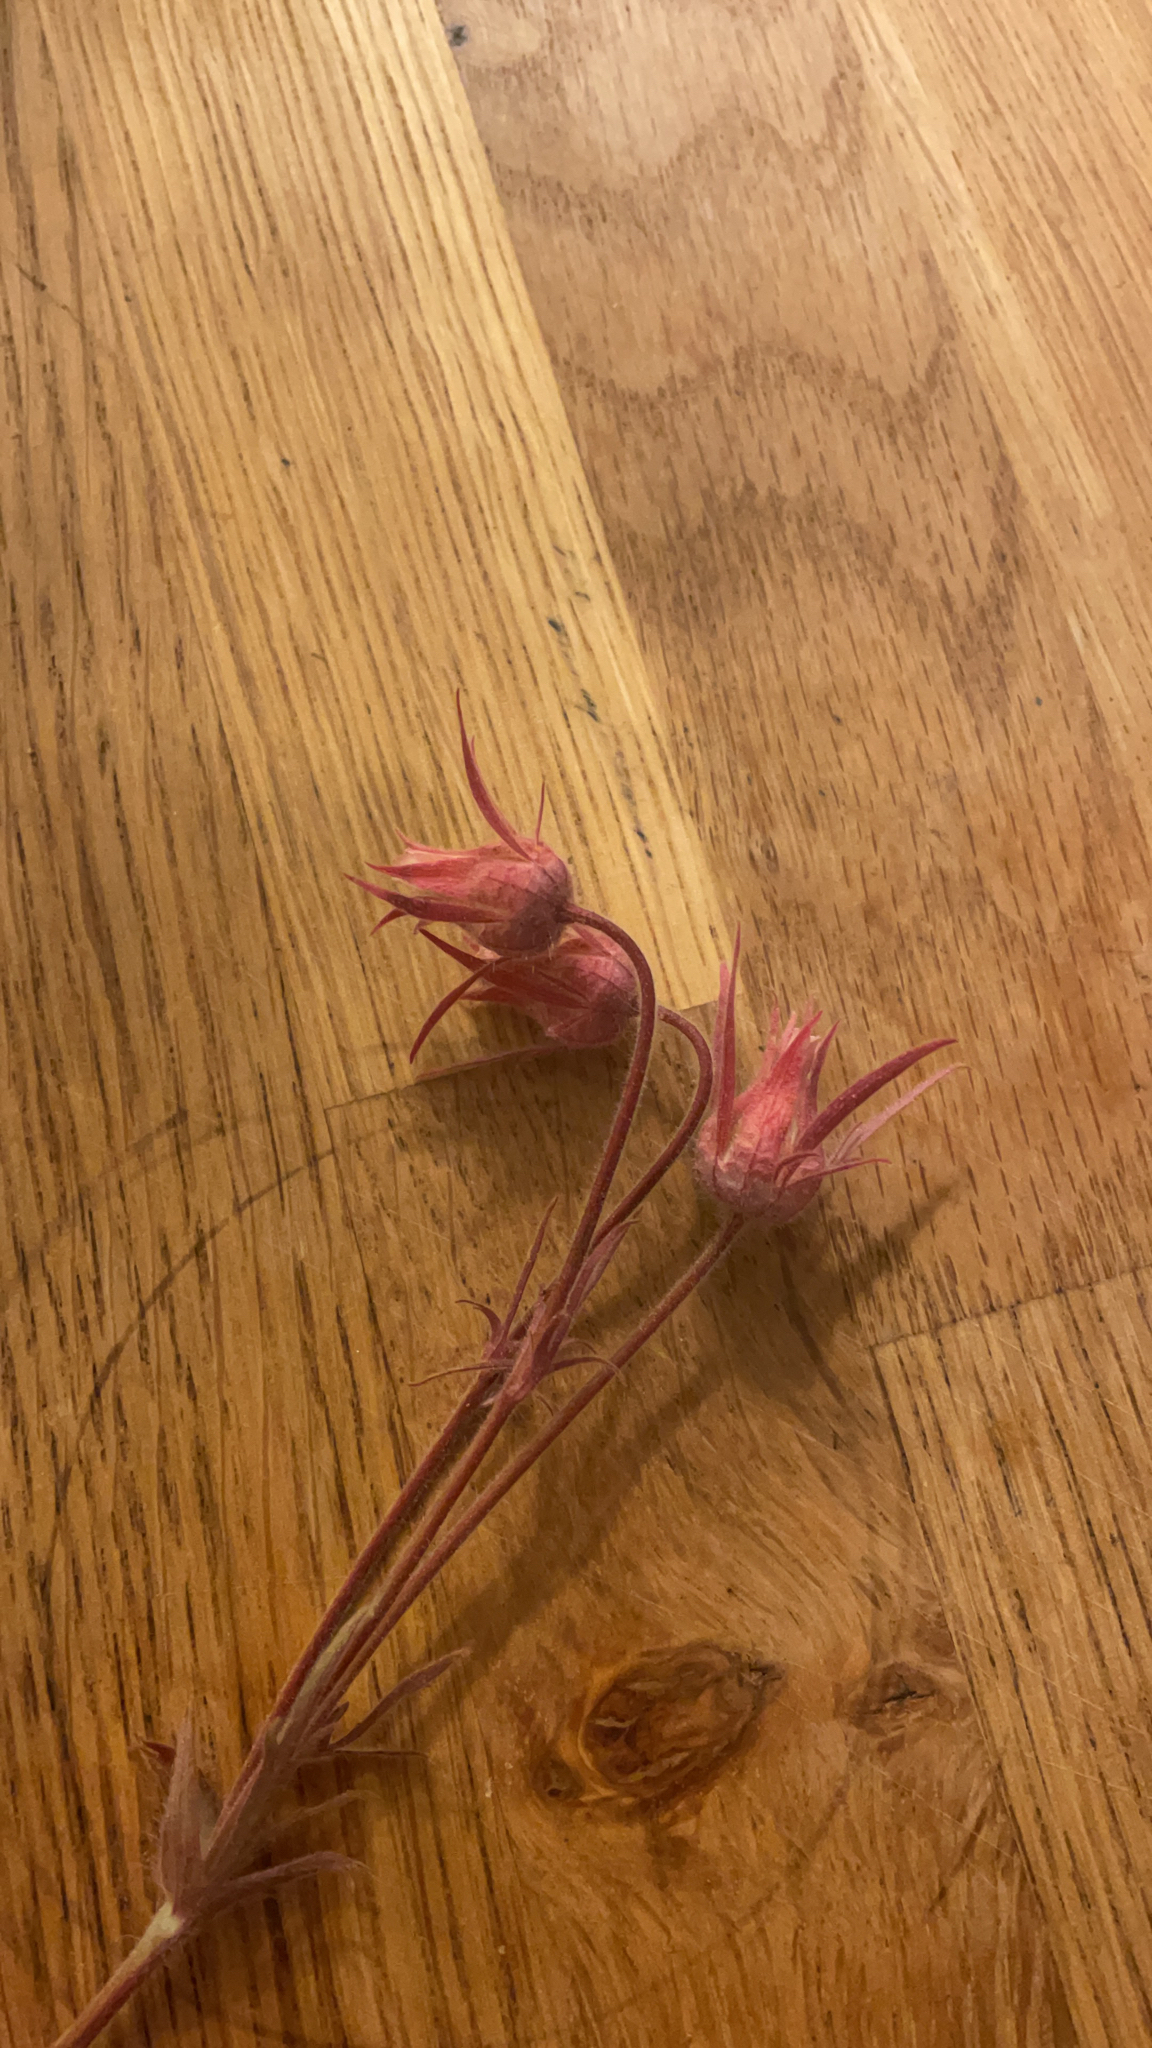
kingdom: Plantae
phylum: Tracheophyta
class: Magnoliopsida
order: Rosales
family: Rosaceae
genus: Geum
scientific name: Geum triflorum
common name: Old man's whiskers
